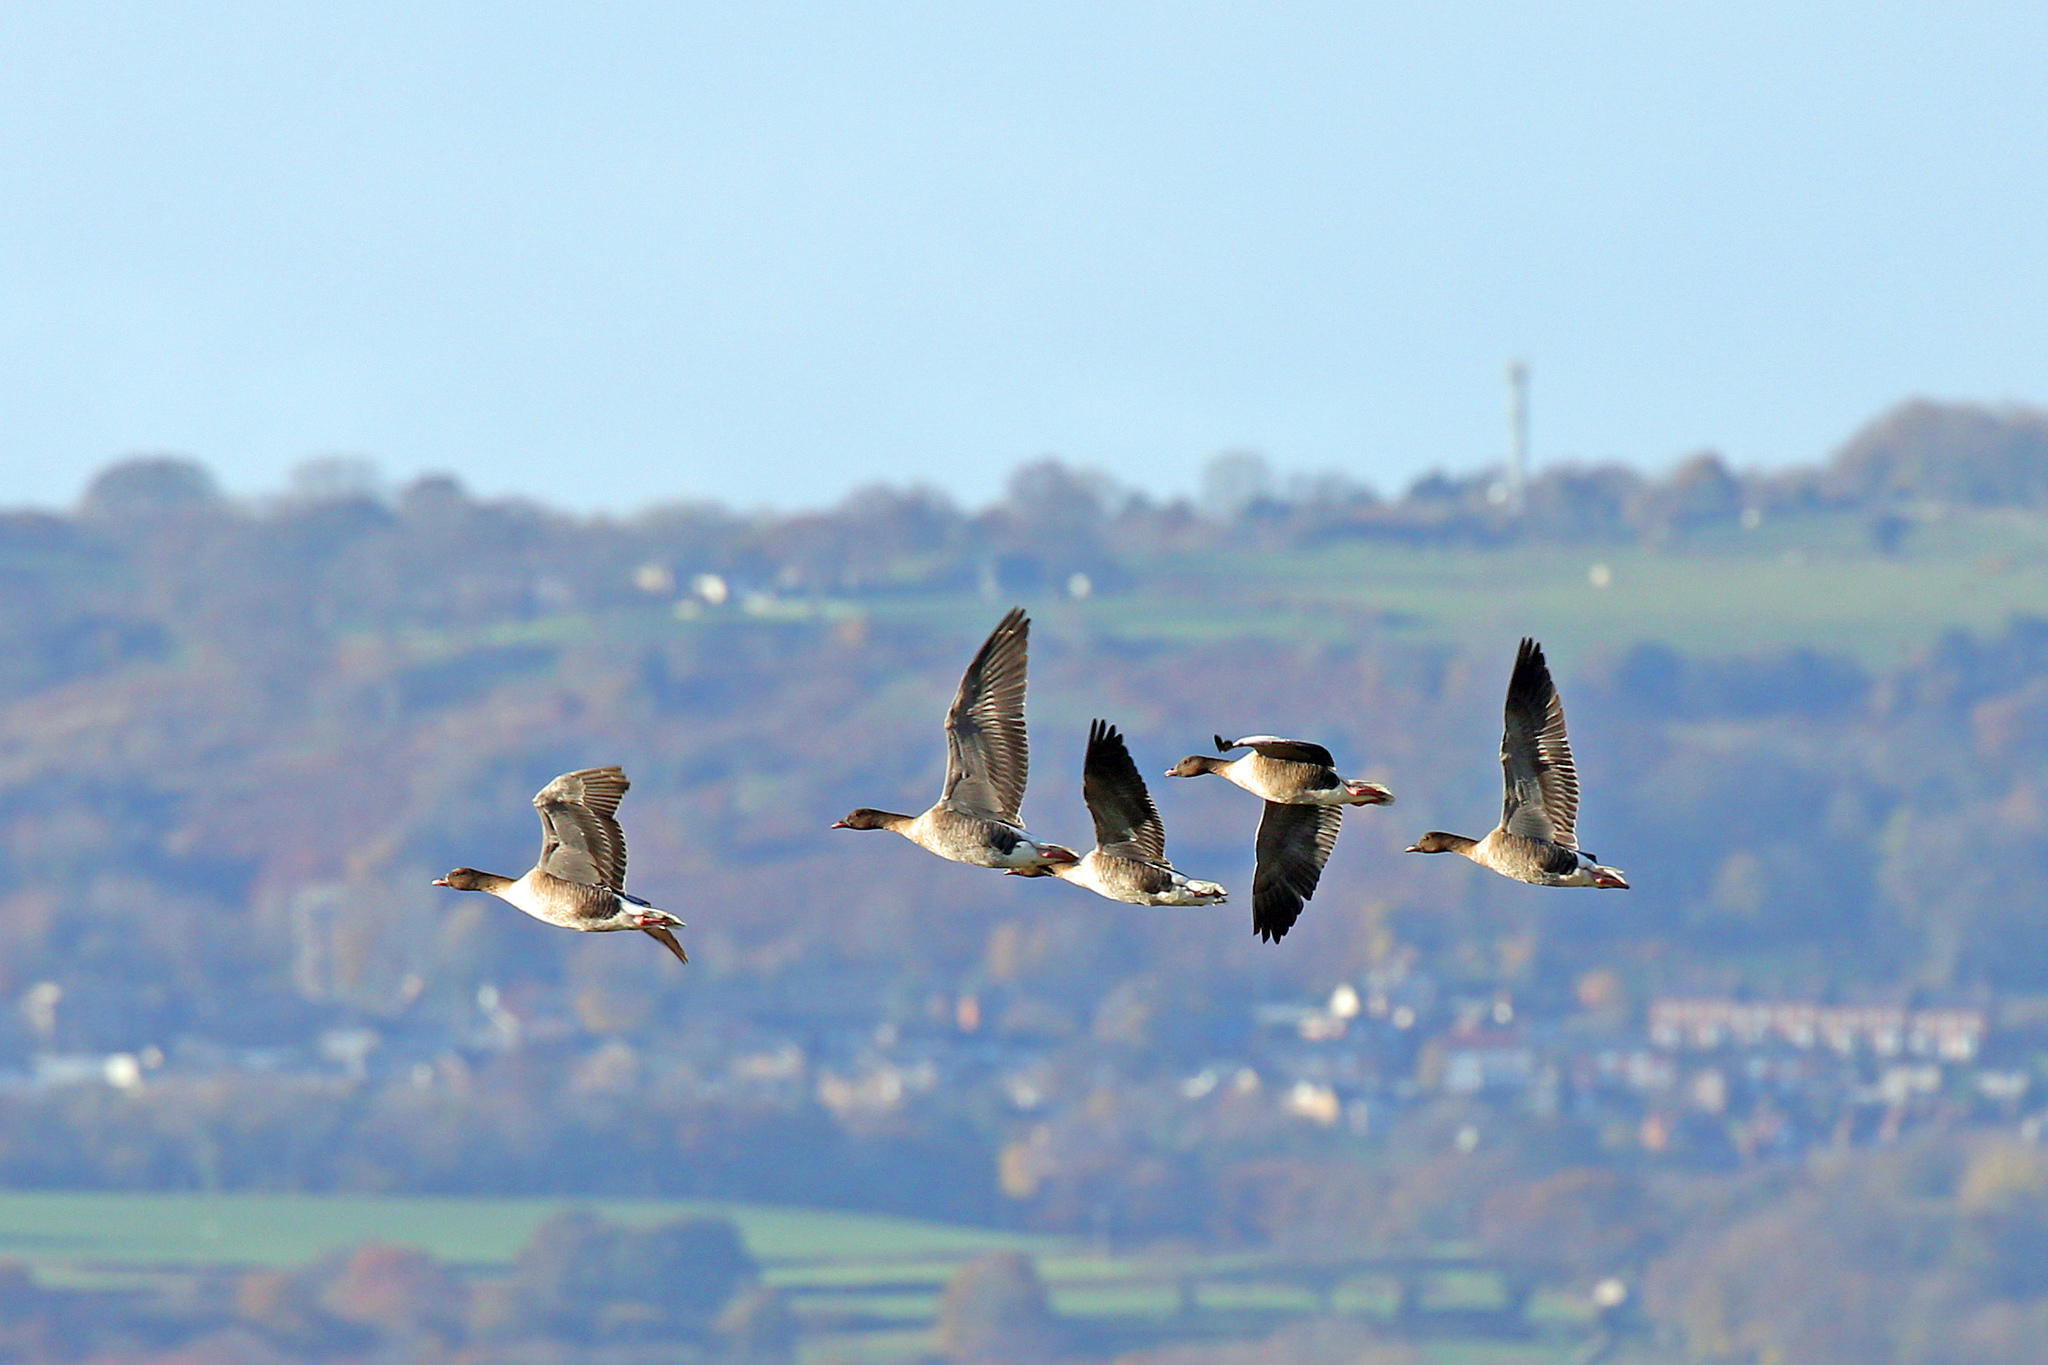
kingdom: Animalia
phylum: Chordata
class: Aves
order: Anseriformes
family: Anatidae
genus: Anser
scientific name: Anser brachyrhynchus
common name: Pink-footed goose
